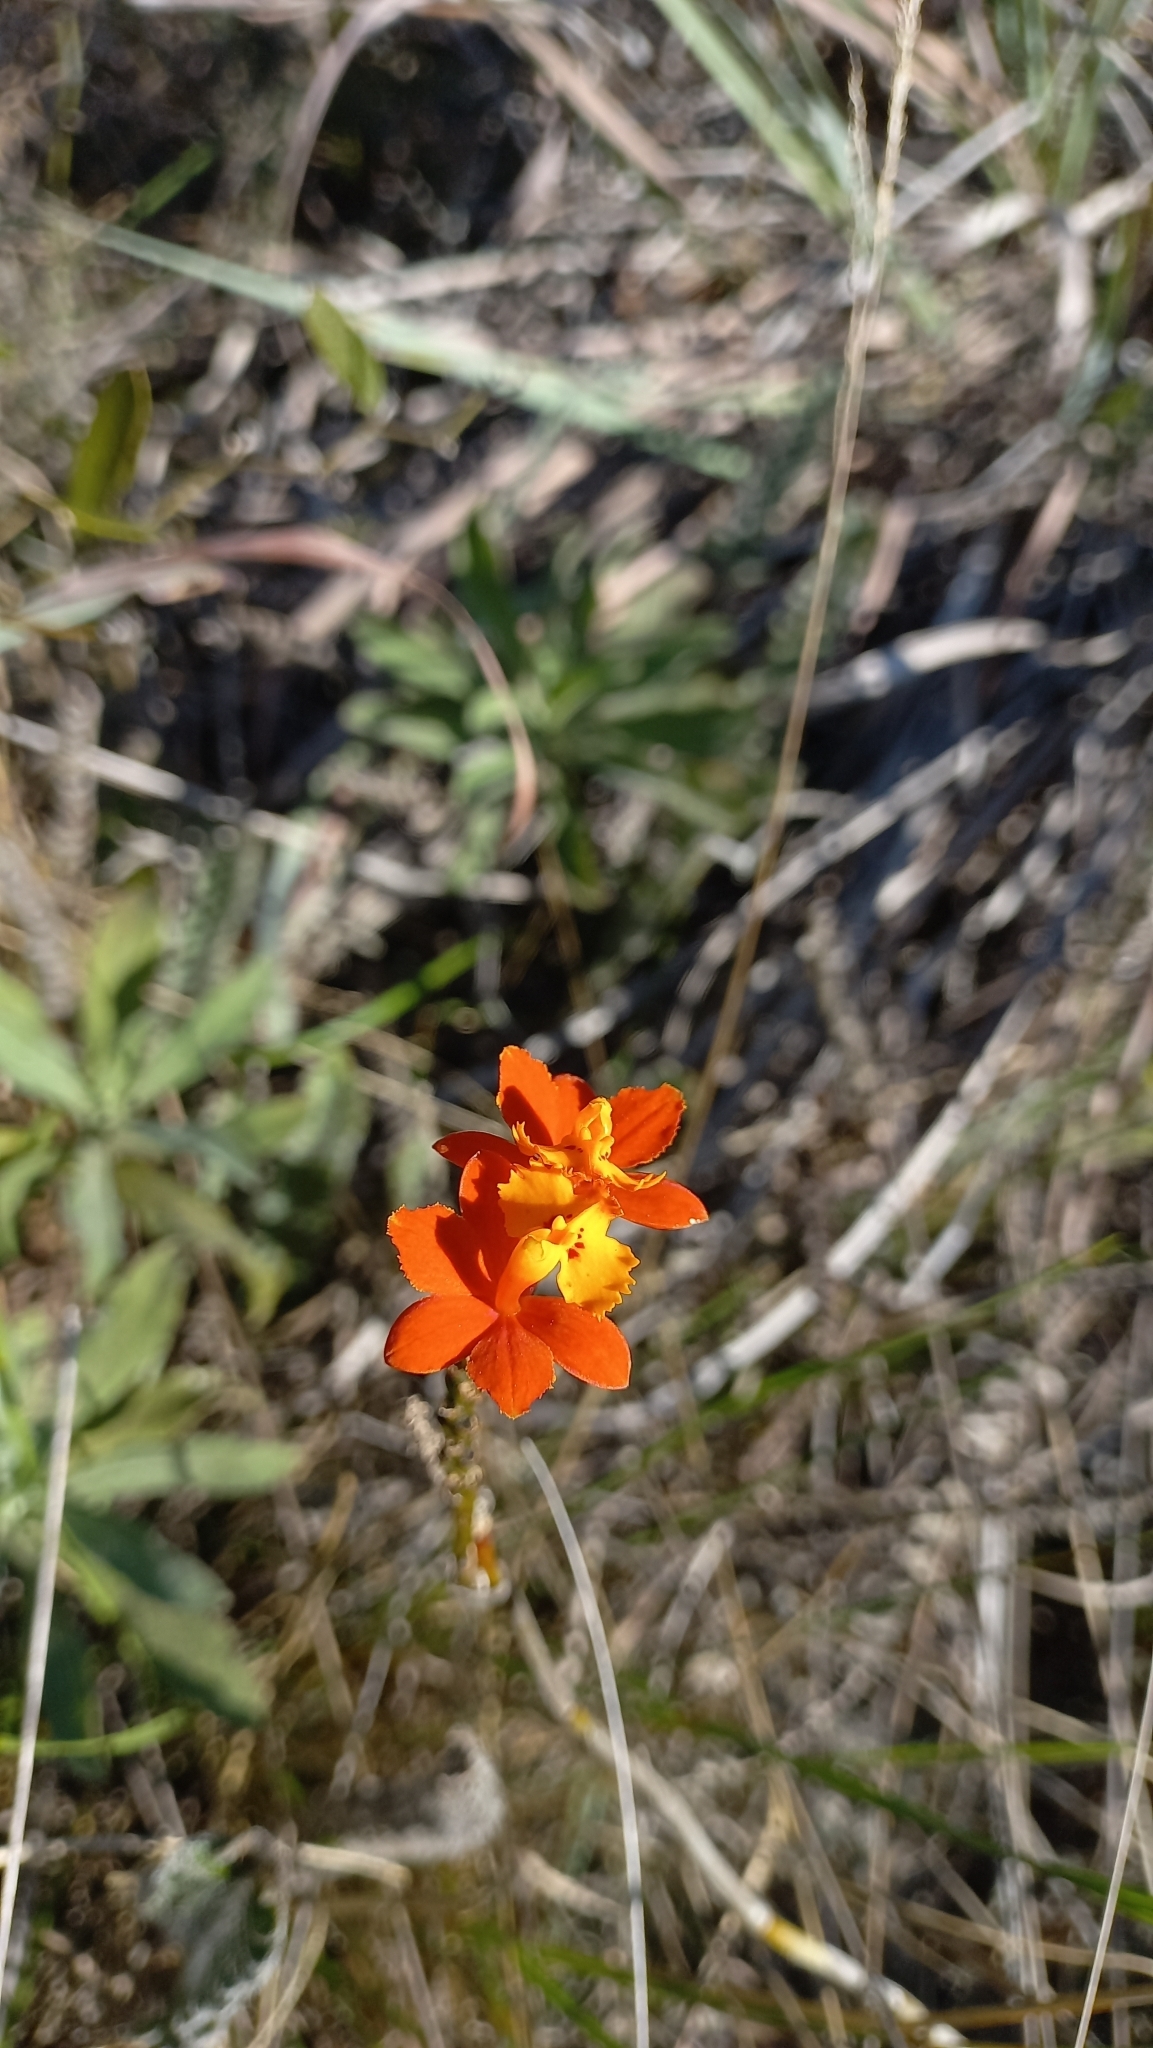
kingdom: Plantae
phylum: Tracheophyta
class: Liliopsida
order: Asparagales
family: Orchidaceae
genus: Epidendrum
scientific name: Epidendrum fulgens
